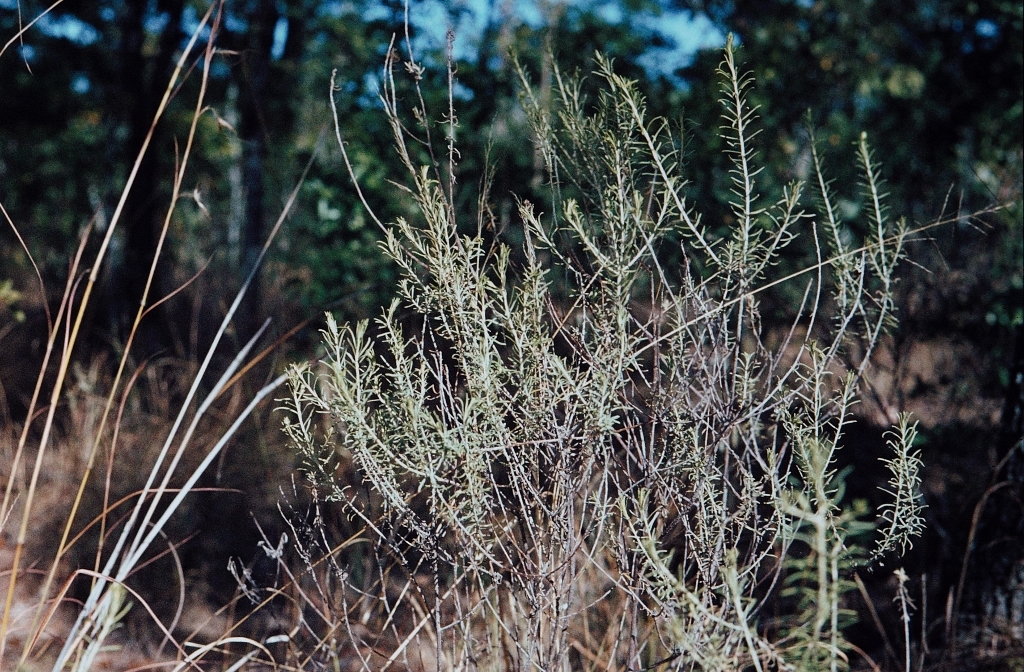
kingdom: Plantae
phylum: Tracheophyta
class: Magnoliopsida
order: Asterales
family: Asteraceae
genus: Helichrysum
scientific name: Helichrysum kraussii
